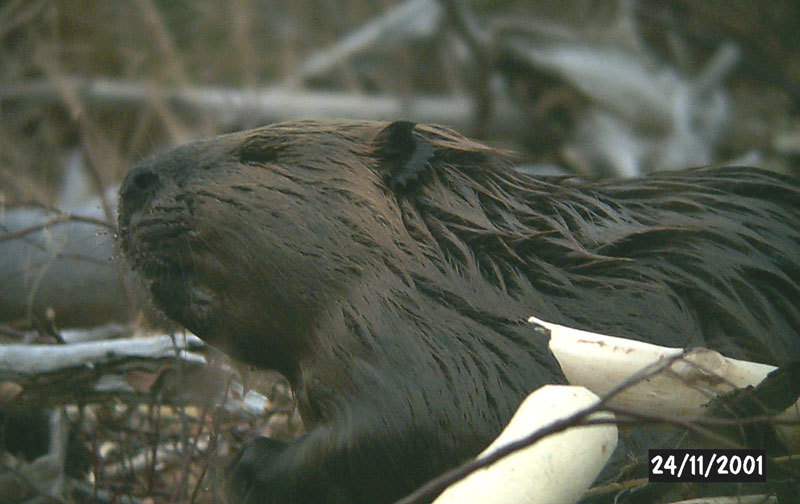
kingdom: Animalia
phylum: Chordata
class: Mammalia
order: Rodentia
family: Castoridae
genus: Castor
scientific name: Castor canadensis
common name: American beaver
